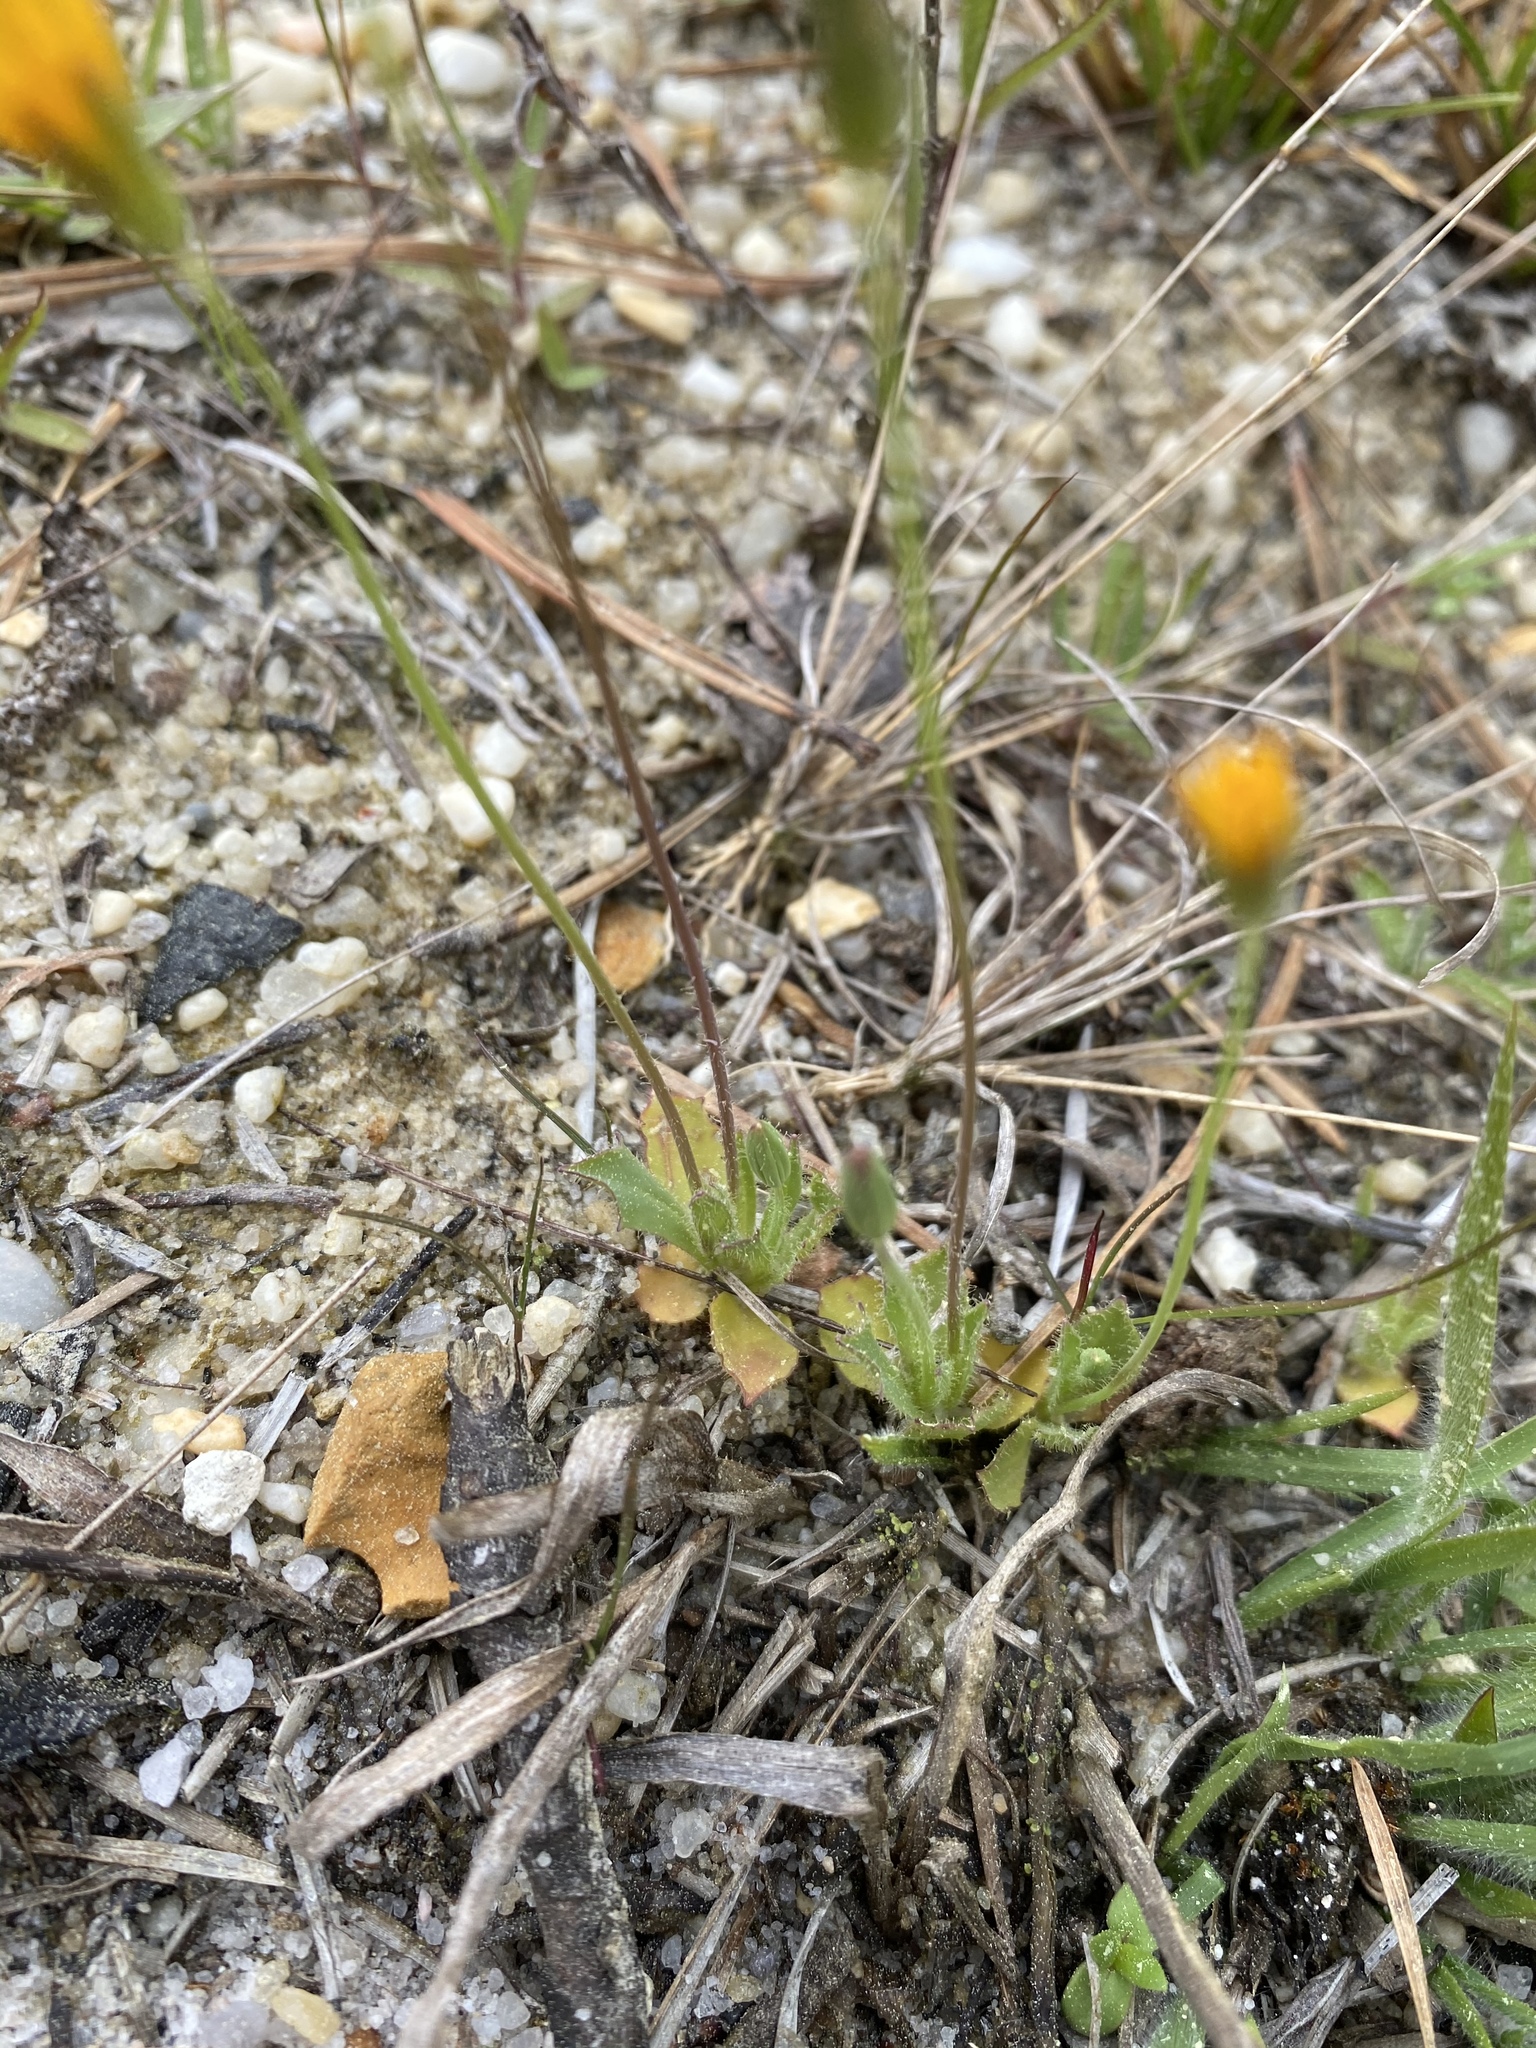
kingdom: Plantae
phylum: Tracheophyta
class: Magnoliopsida
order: Asterales
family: Asteraceae
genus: Krigia
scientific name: Krigia virginica
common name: Virginia dwarf-dandelion
